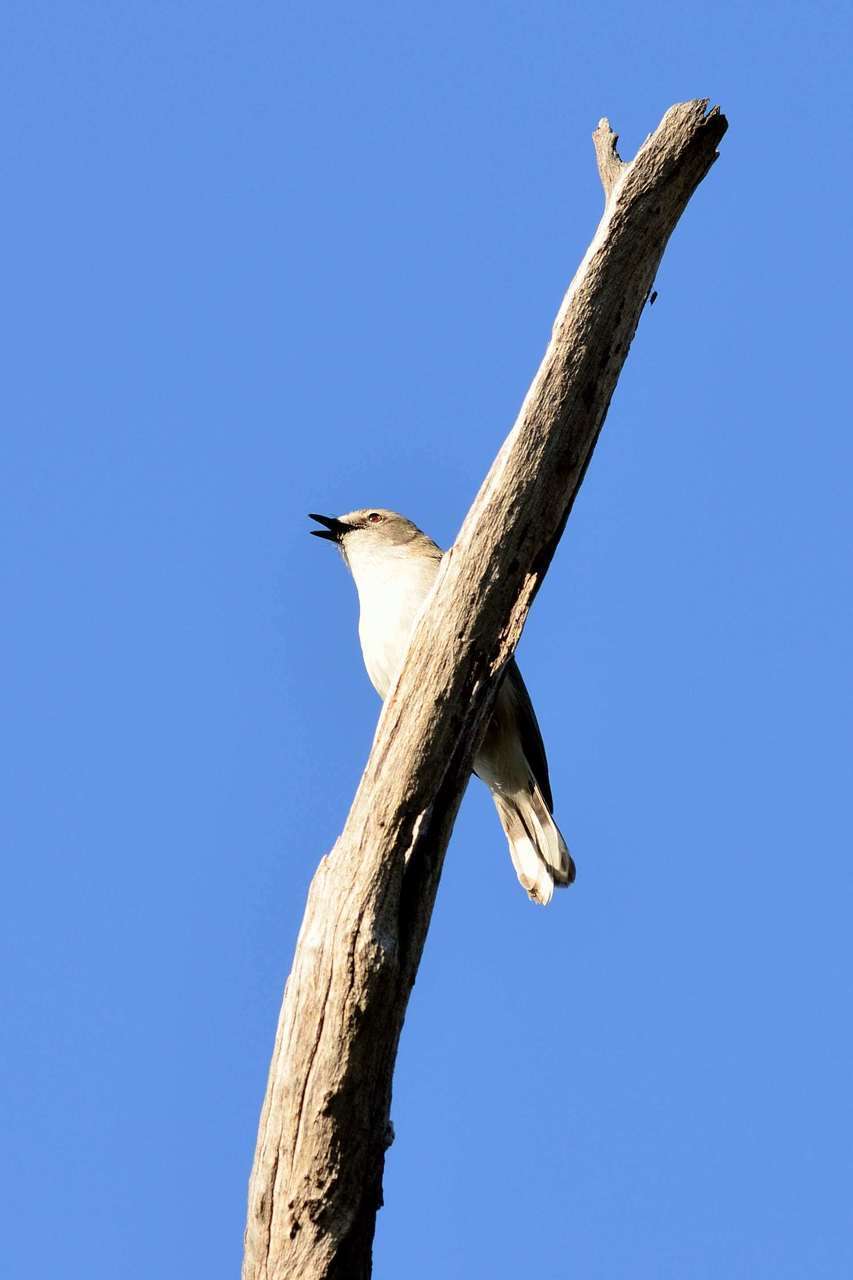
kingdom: Animalia
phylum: Chordata
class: Aves
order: Passeriformes
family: Acanthizidae
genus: Gerygone
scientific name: Gerygone fusca
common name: Western gerygone
